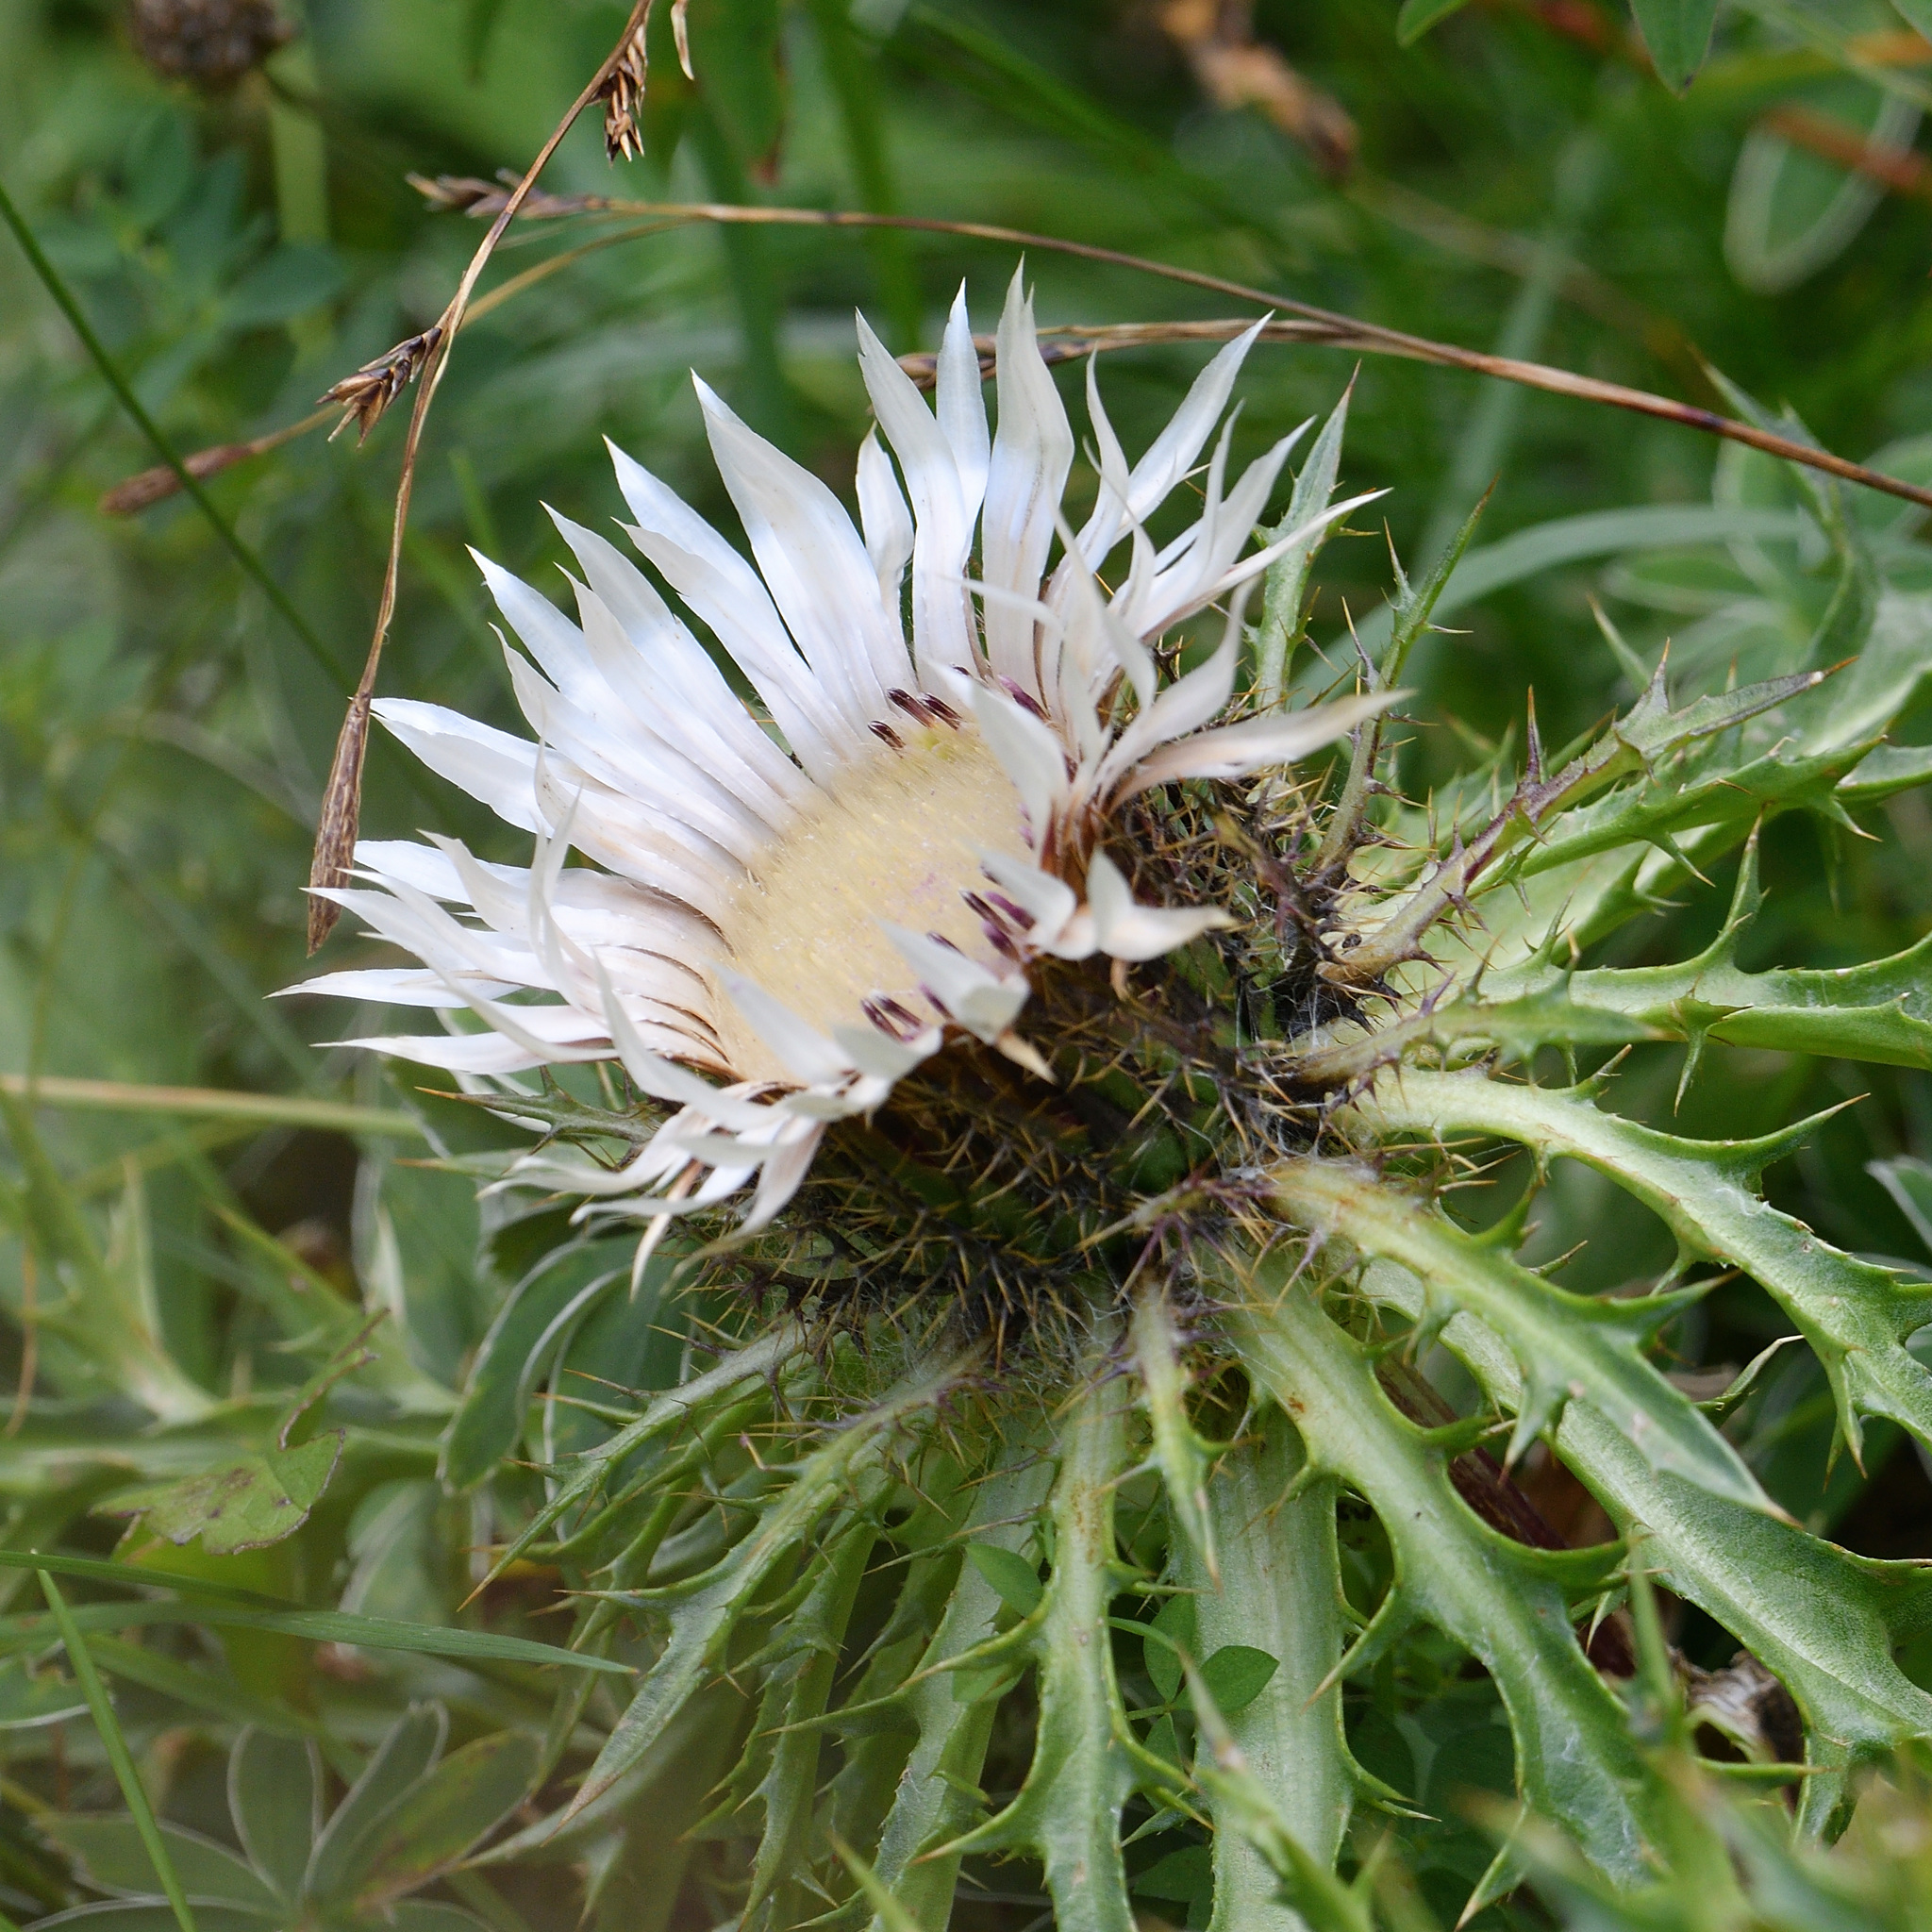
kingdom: Plantae
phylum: Tracheophyta
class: Magnoliopsida
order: Asterales
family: Asteraceae
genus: Carlina
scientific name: Carlina acaulis
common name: Stemless carline thistle
